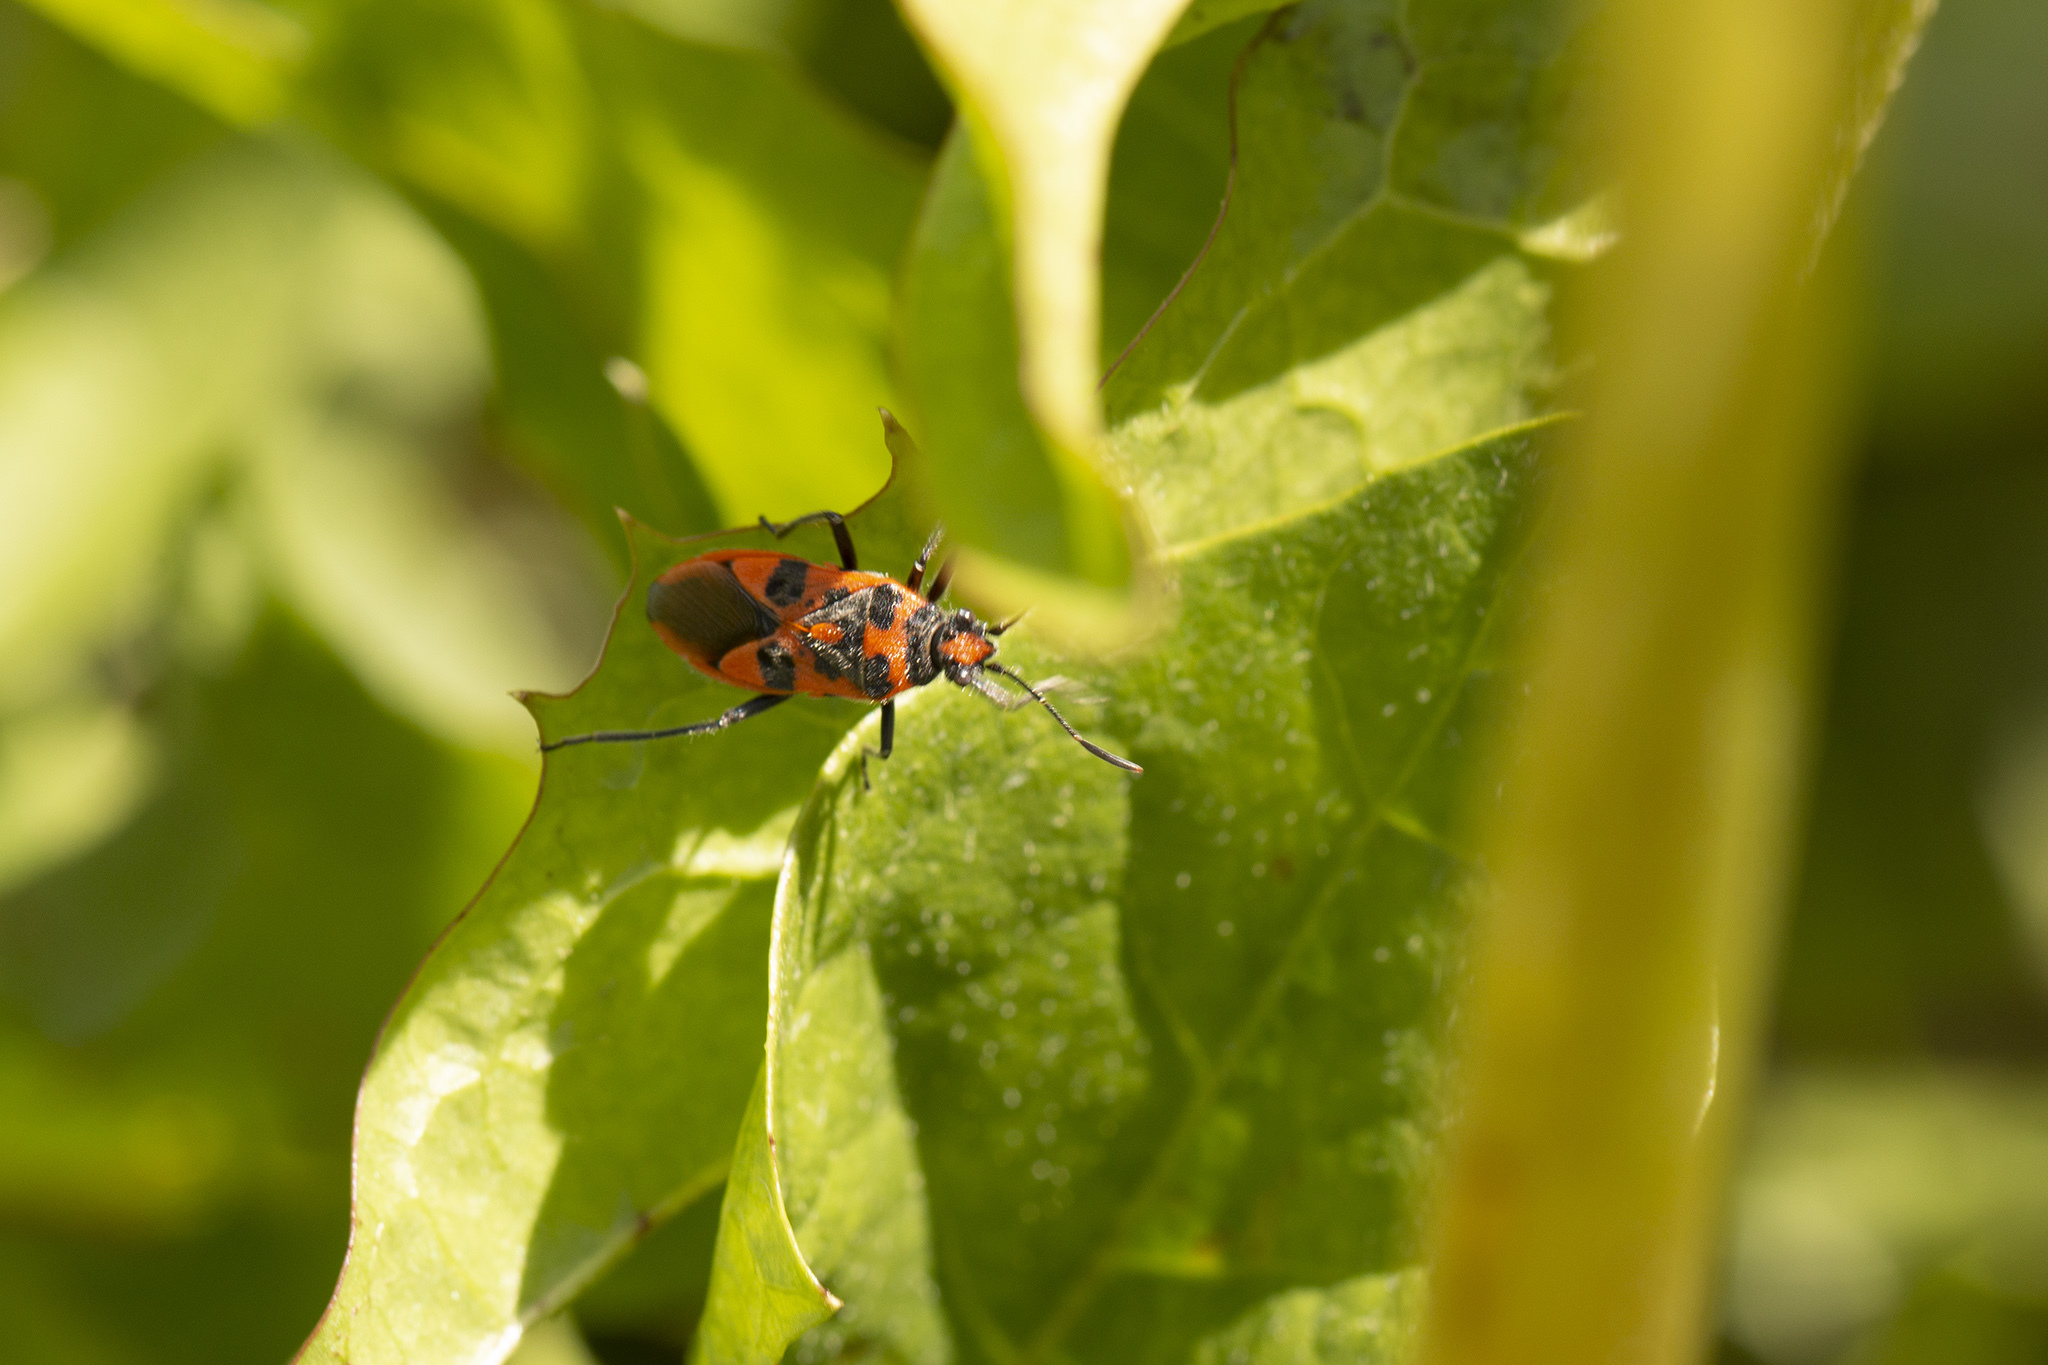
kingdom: Animalia
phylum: Arthropoda
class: Insecta
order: Hemiptera
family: Rhopalidae
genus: Corizus
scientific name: Corizus hyoscyami
